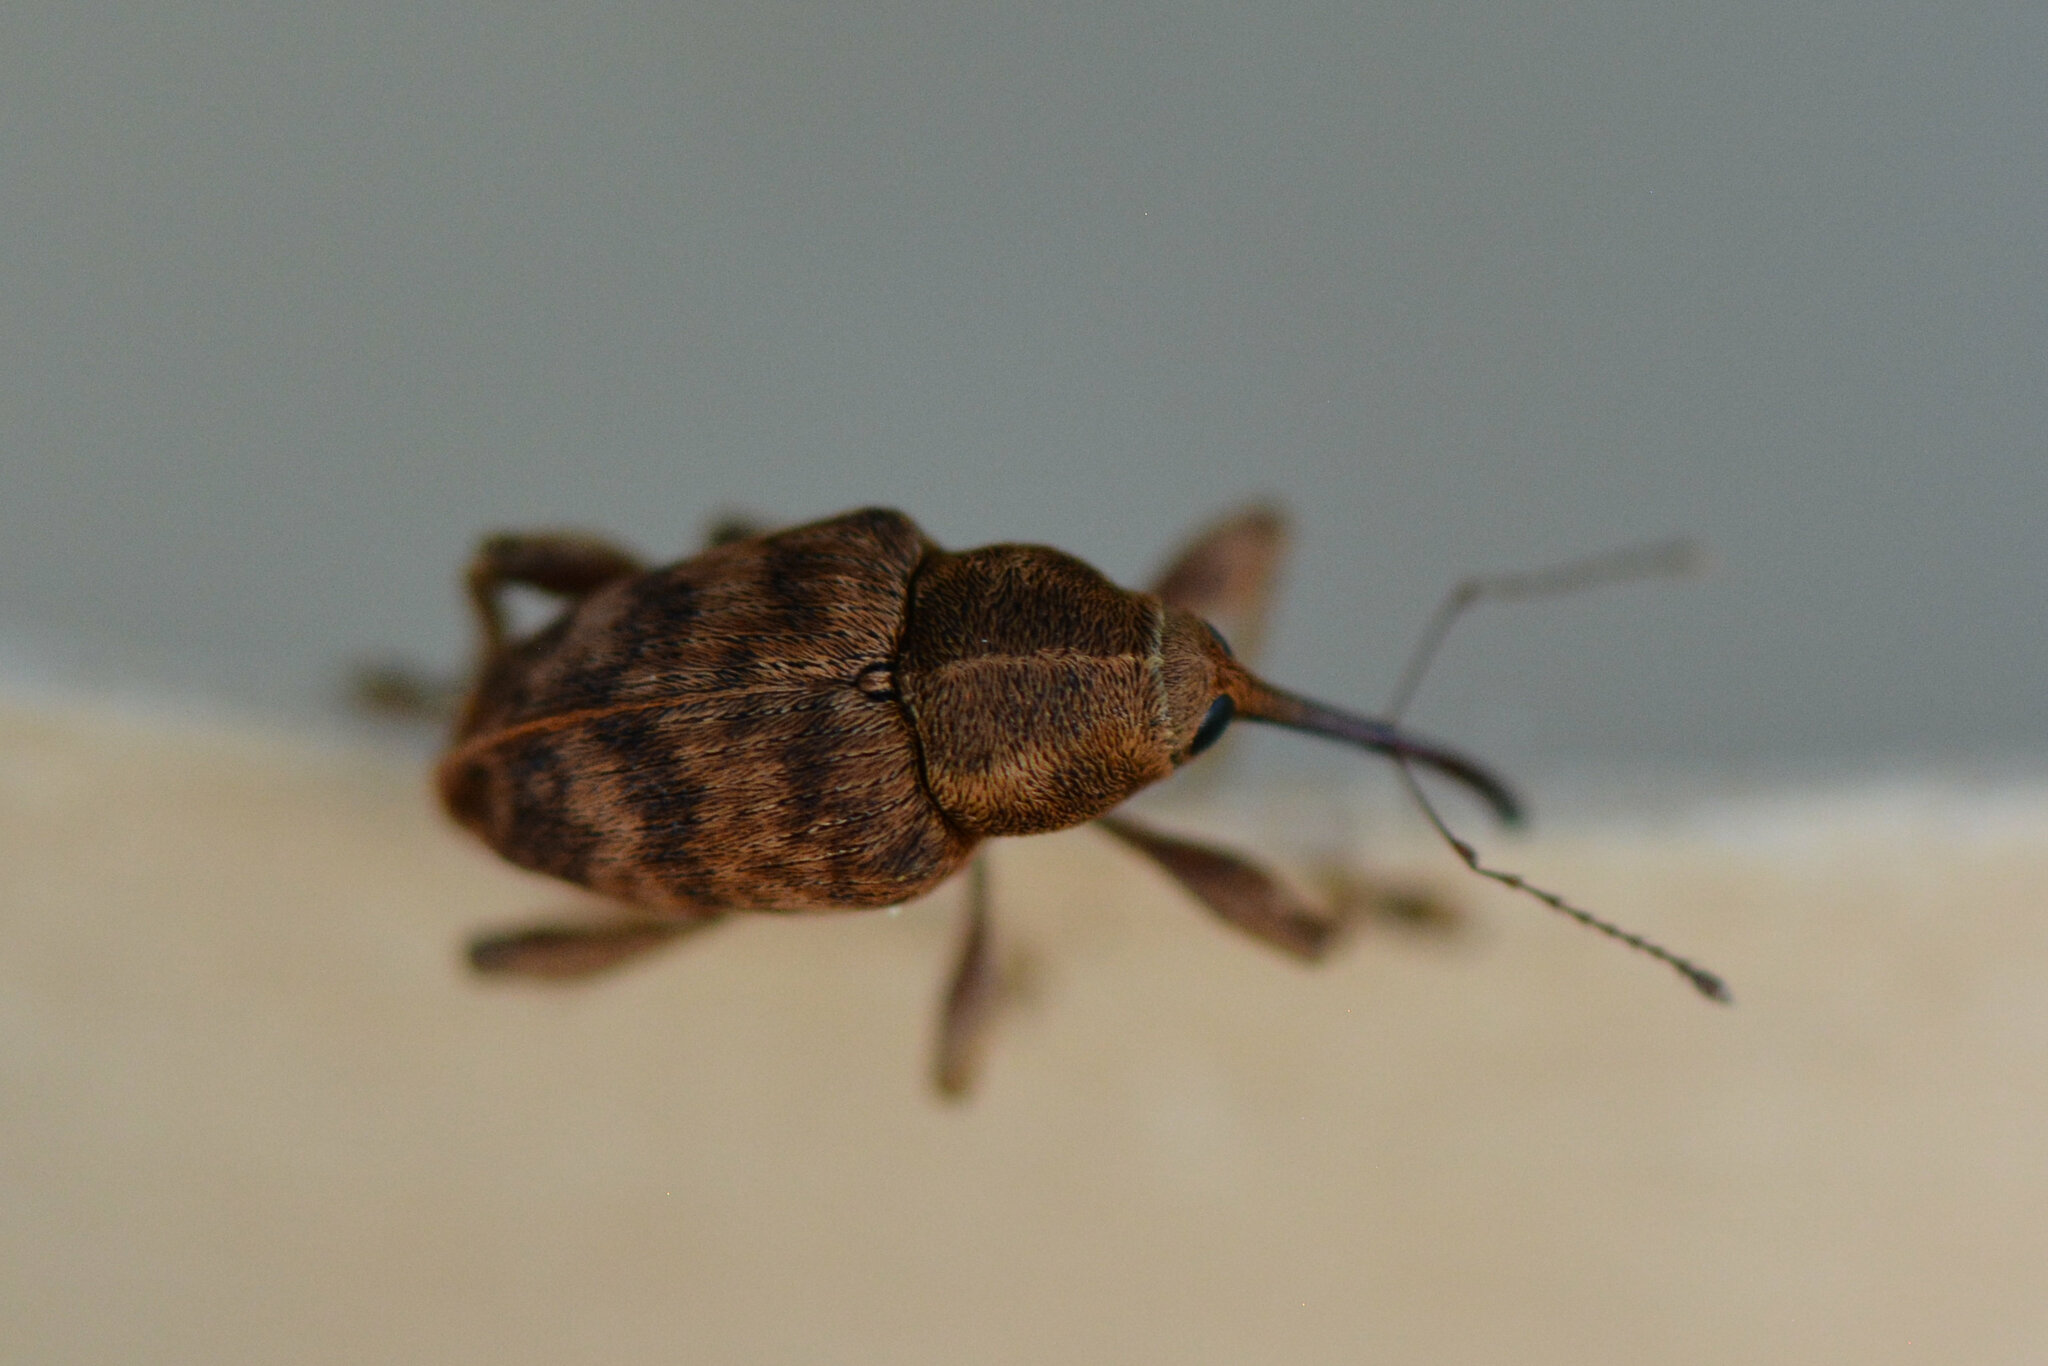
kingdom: Animalia
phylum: Arthropoda
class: Insecta
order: Coleoptera
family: Curculionidae
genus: Curculio
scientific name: Curculio venosus
